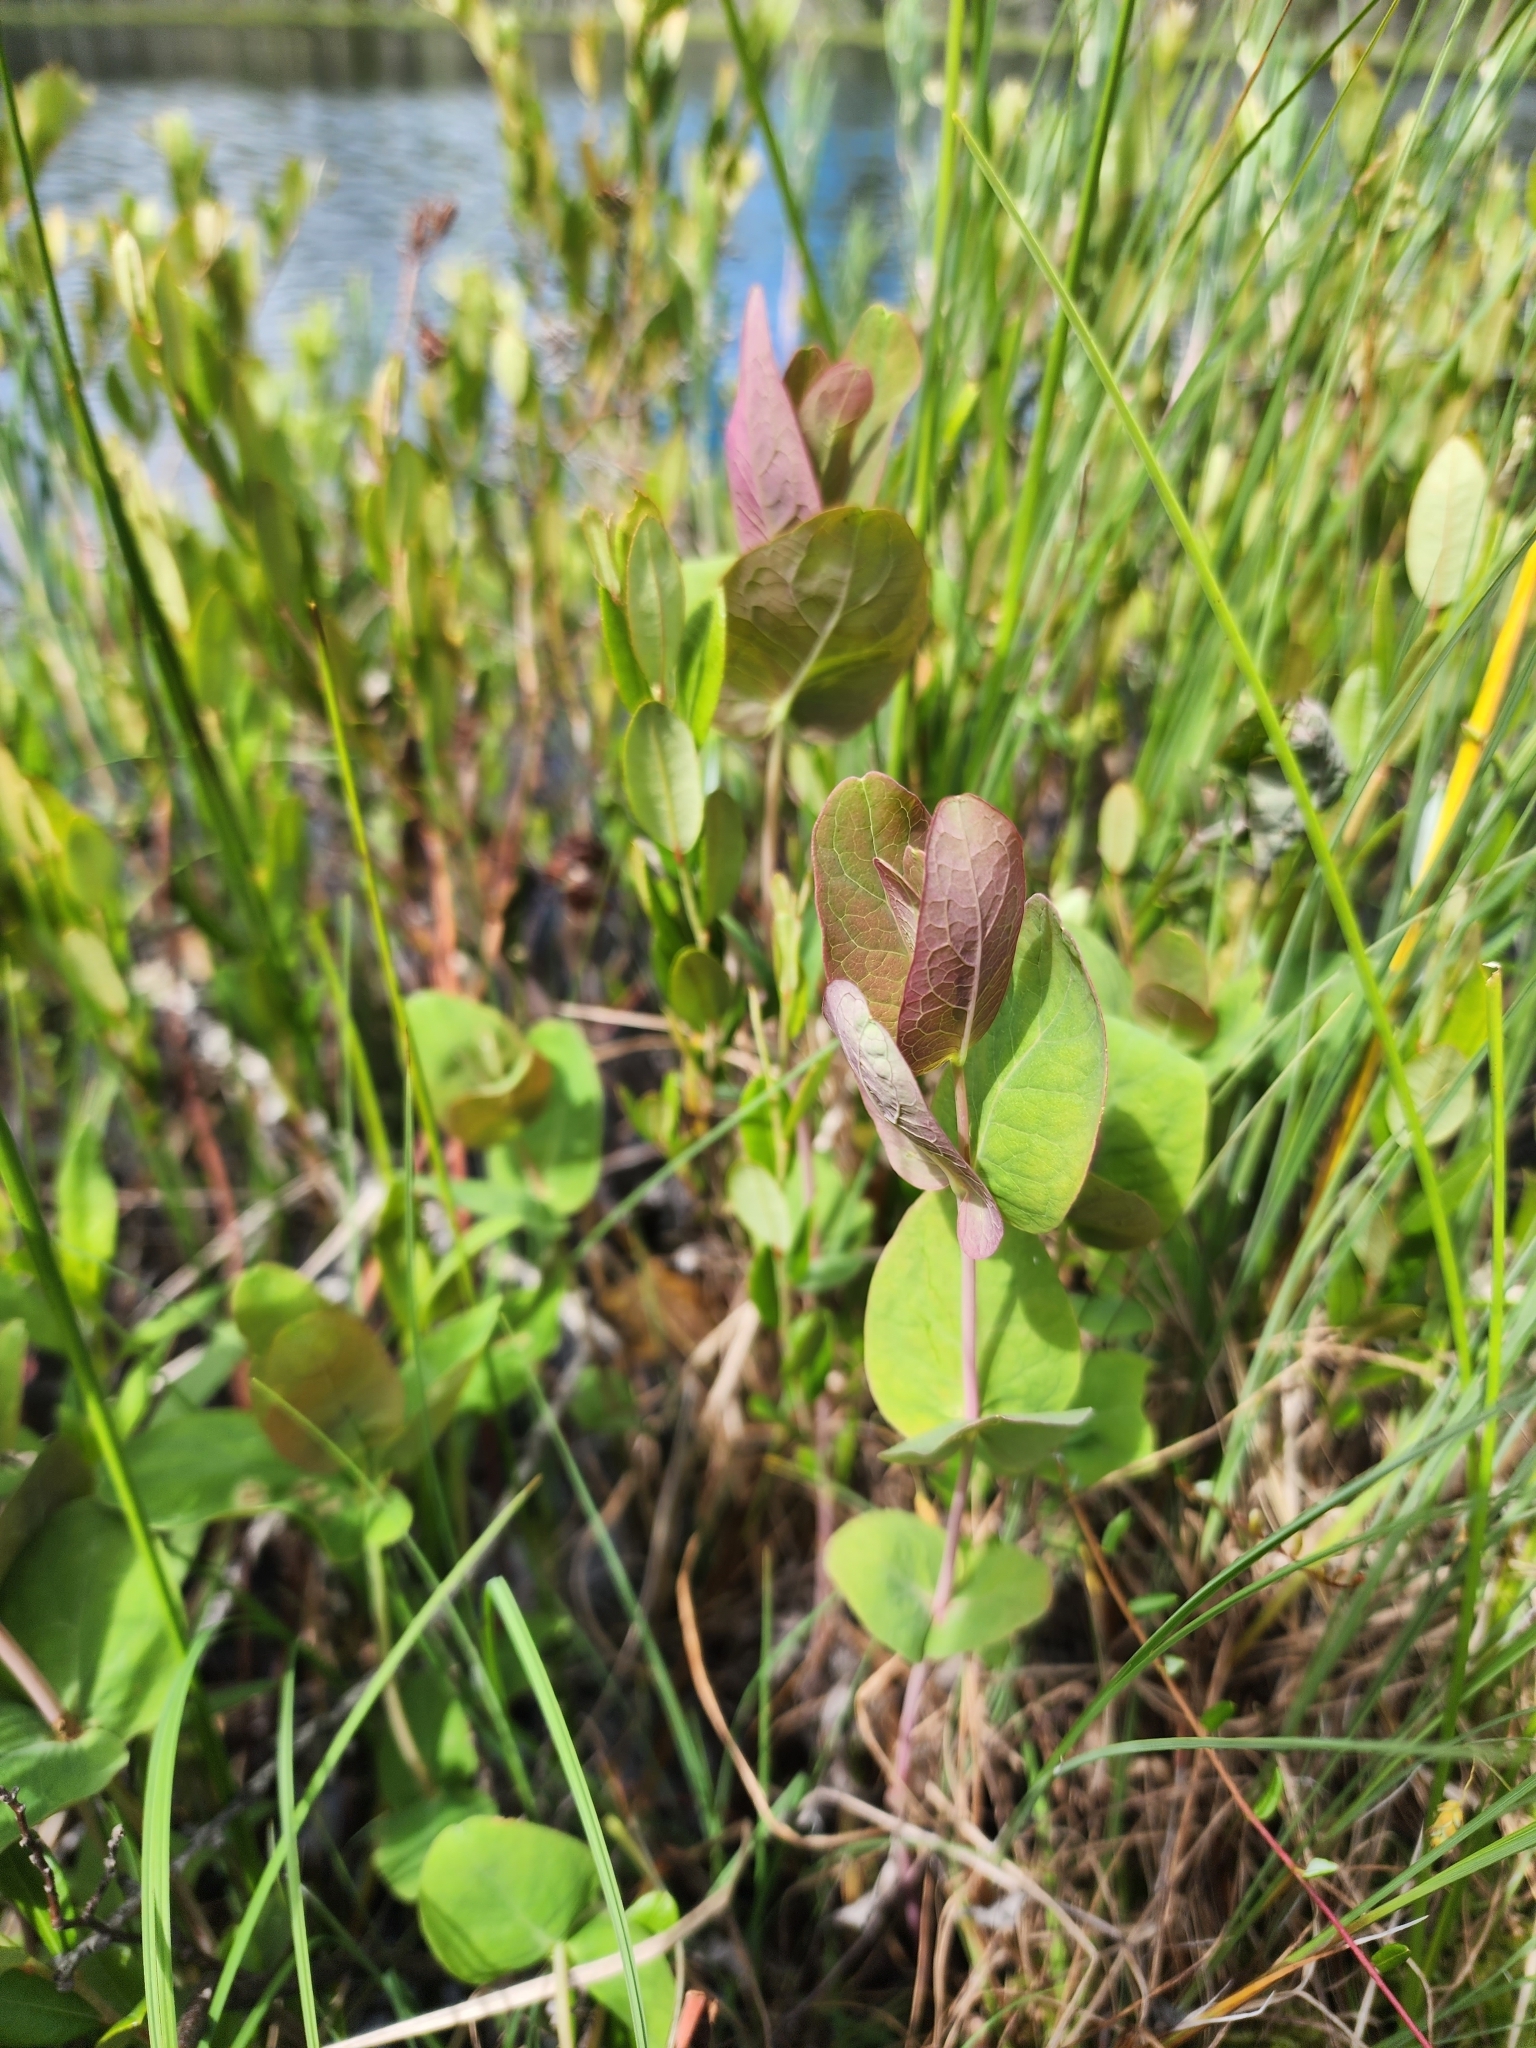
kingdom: Plantae
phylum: Tracheophyta
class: Magnoliopsida
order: Malpighiales
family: Hypericaceae
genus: Triadenum
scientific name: Triadenum fraseri
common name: Fraser's marsh st. johnswort
